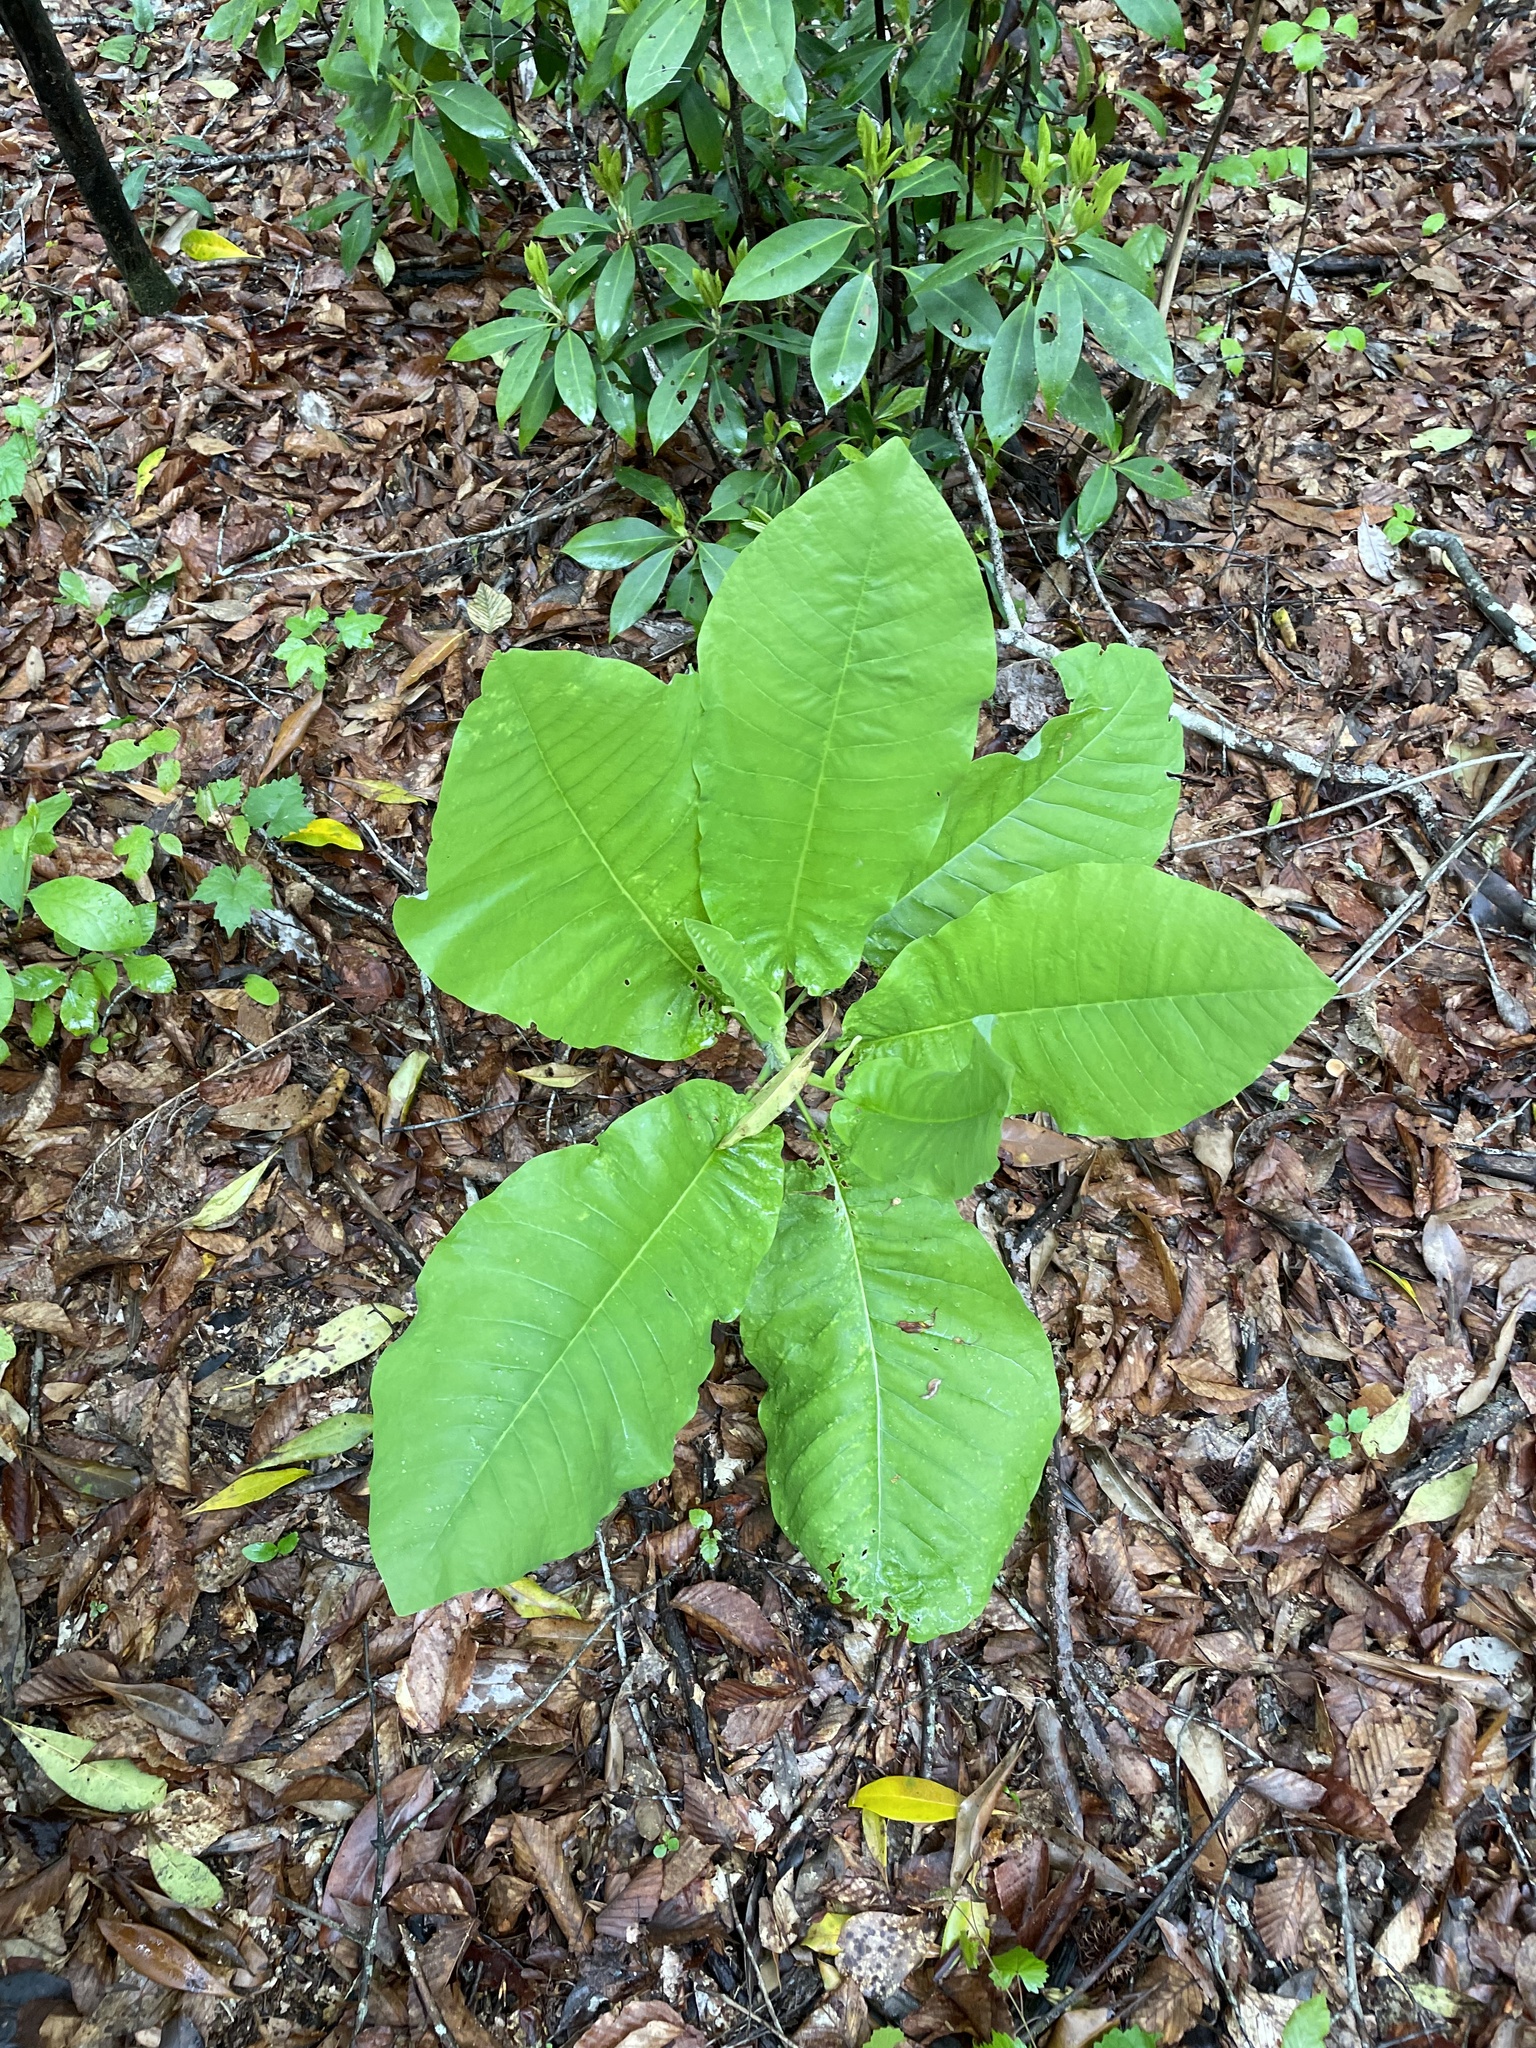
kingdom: Plantae
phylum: Tracheophyta
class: Magnoliopsida
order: Magnoliales
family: Magnoliaceae
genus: Magnolia
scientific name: Magnolia macrophylla
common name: Big-leaf magnolia
